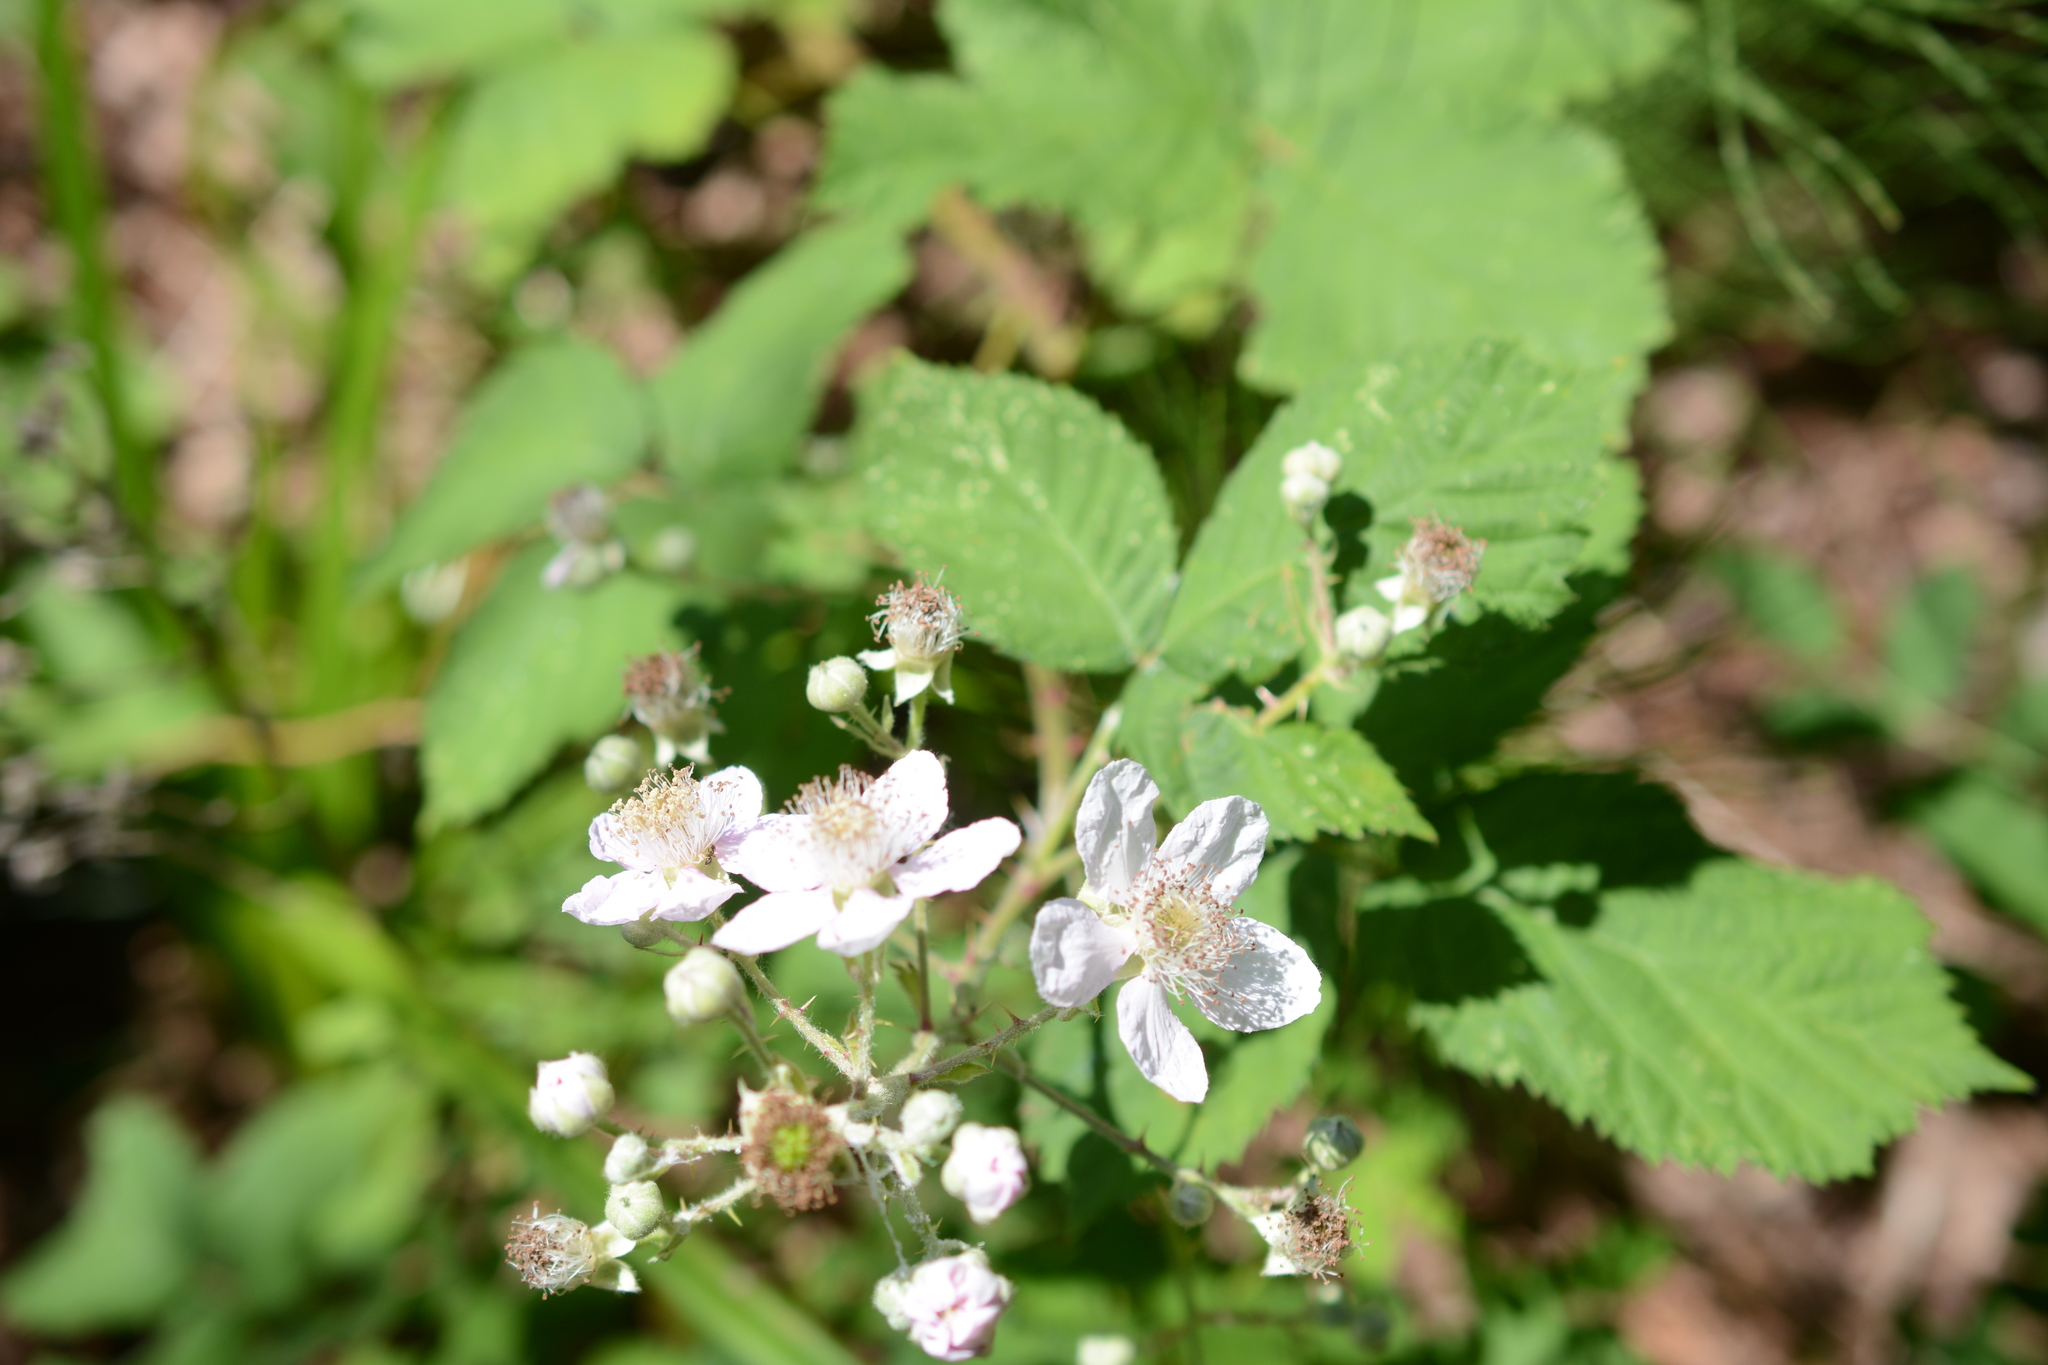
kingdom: Plantae
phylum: Tracheophyta
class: Magnoliopsida
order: Rosales
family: Rosaceae
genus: Rubus
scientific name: Rubus armeniacus
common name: Himalayan blackberry
